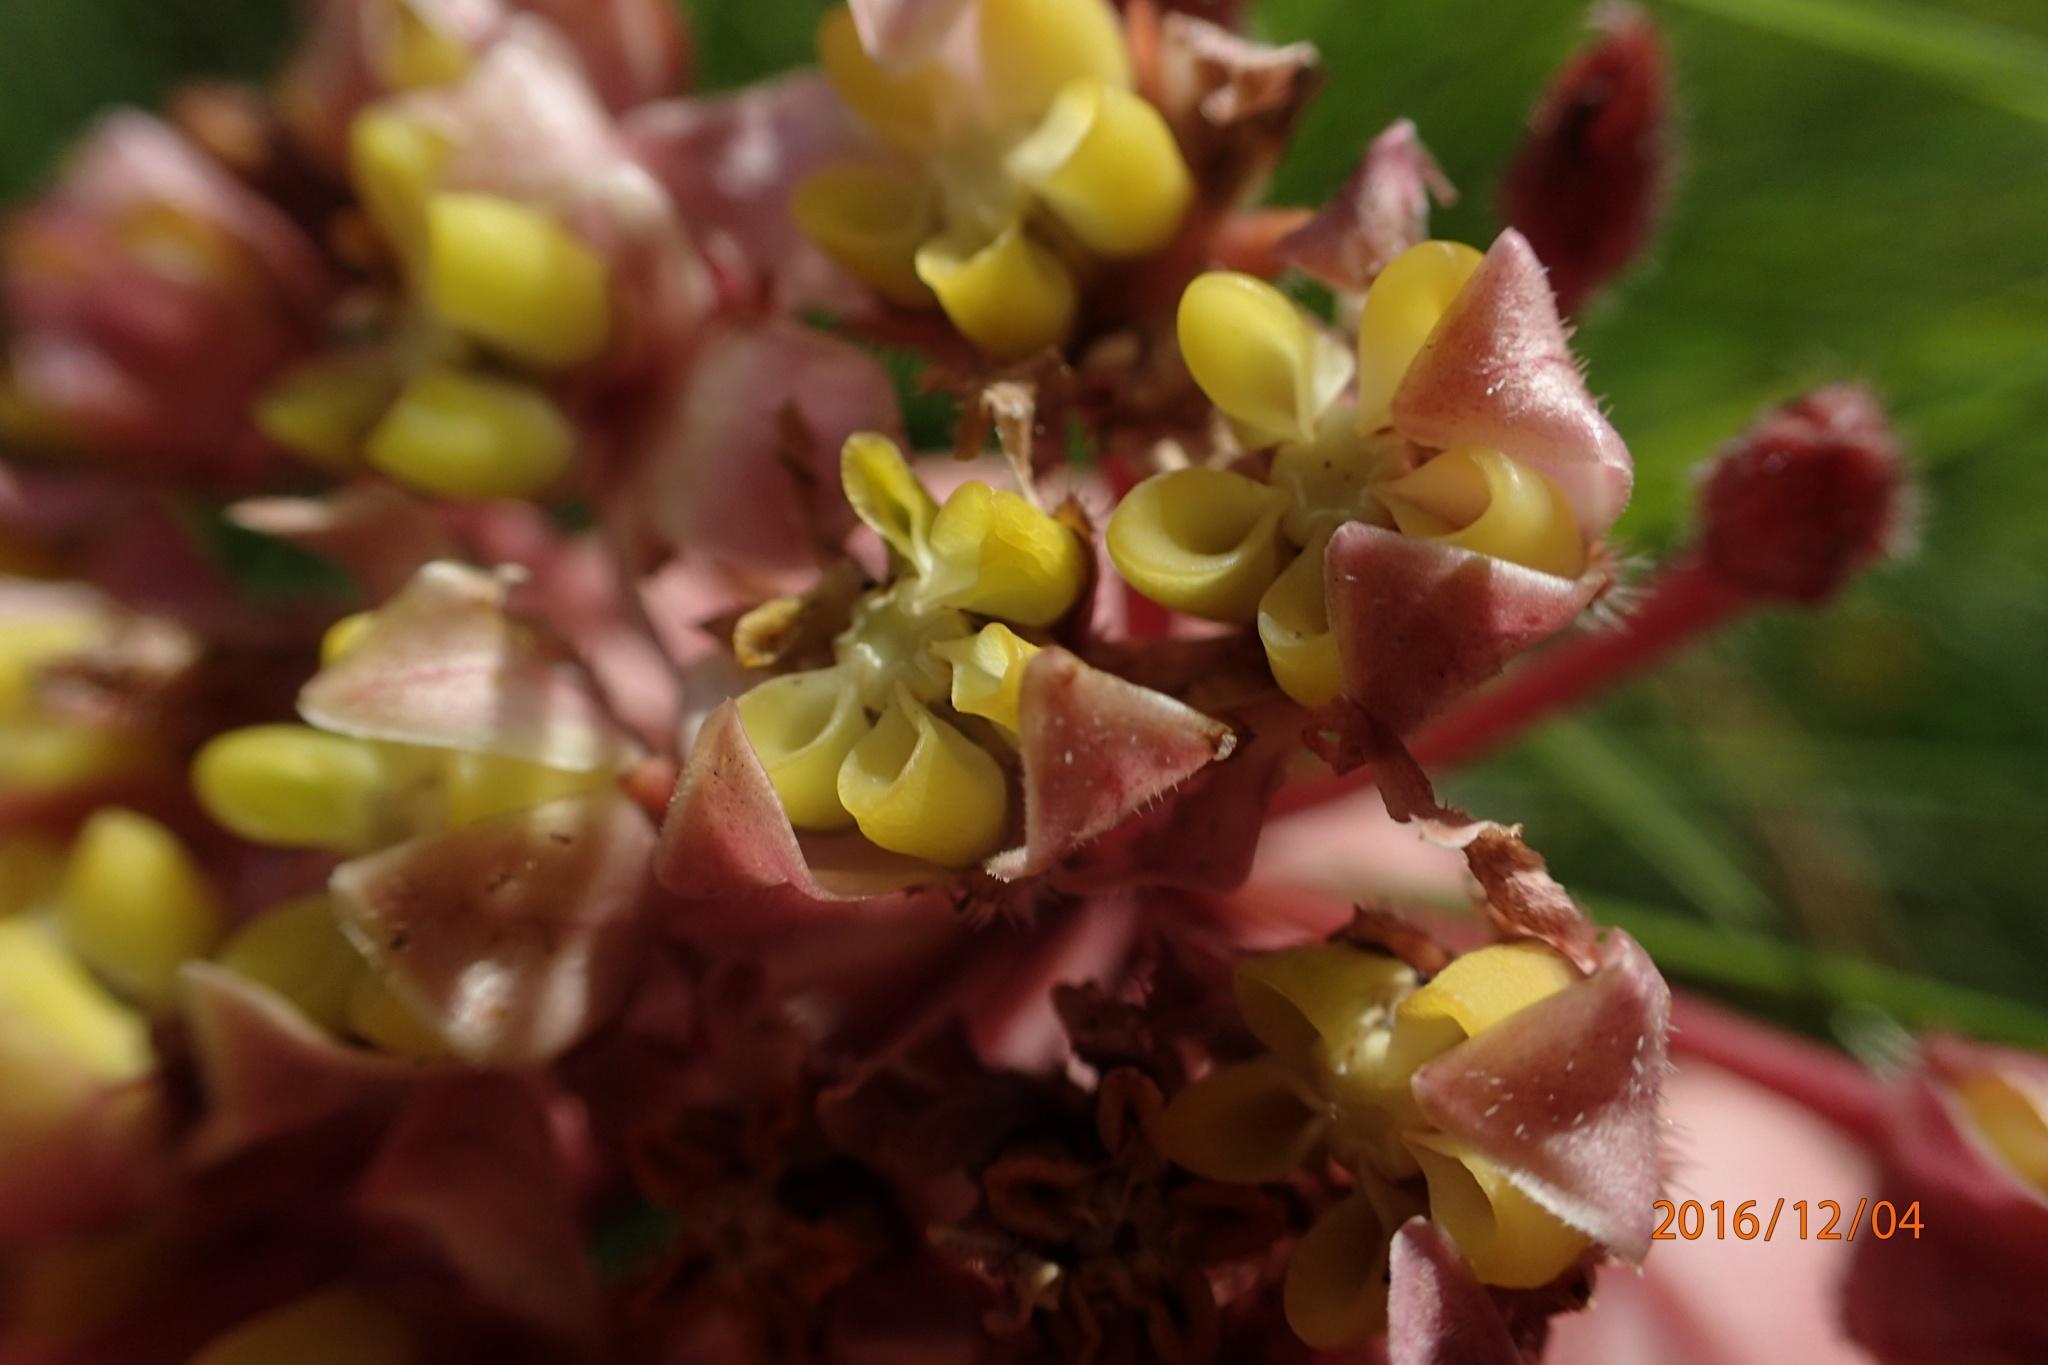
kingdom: Plantae
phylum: Tracheophyta
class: Magnoliopsida
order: Gentianales
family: Apocynaceae
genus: Asclepias
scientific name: Asclepias albens
